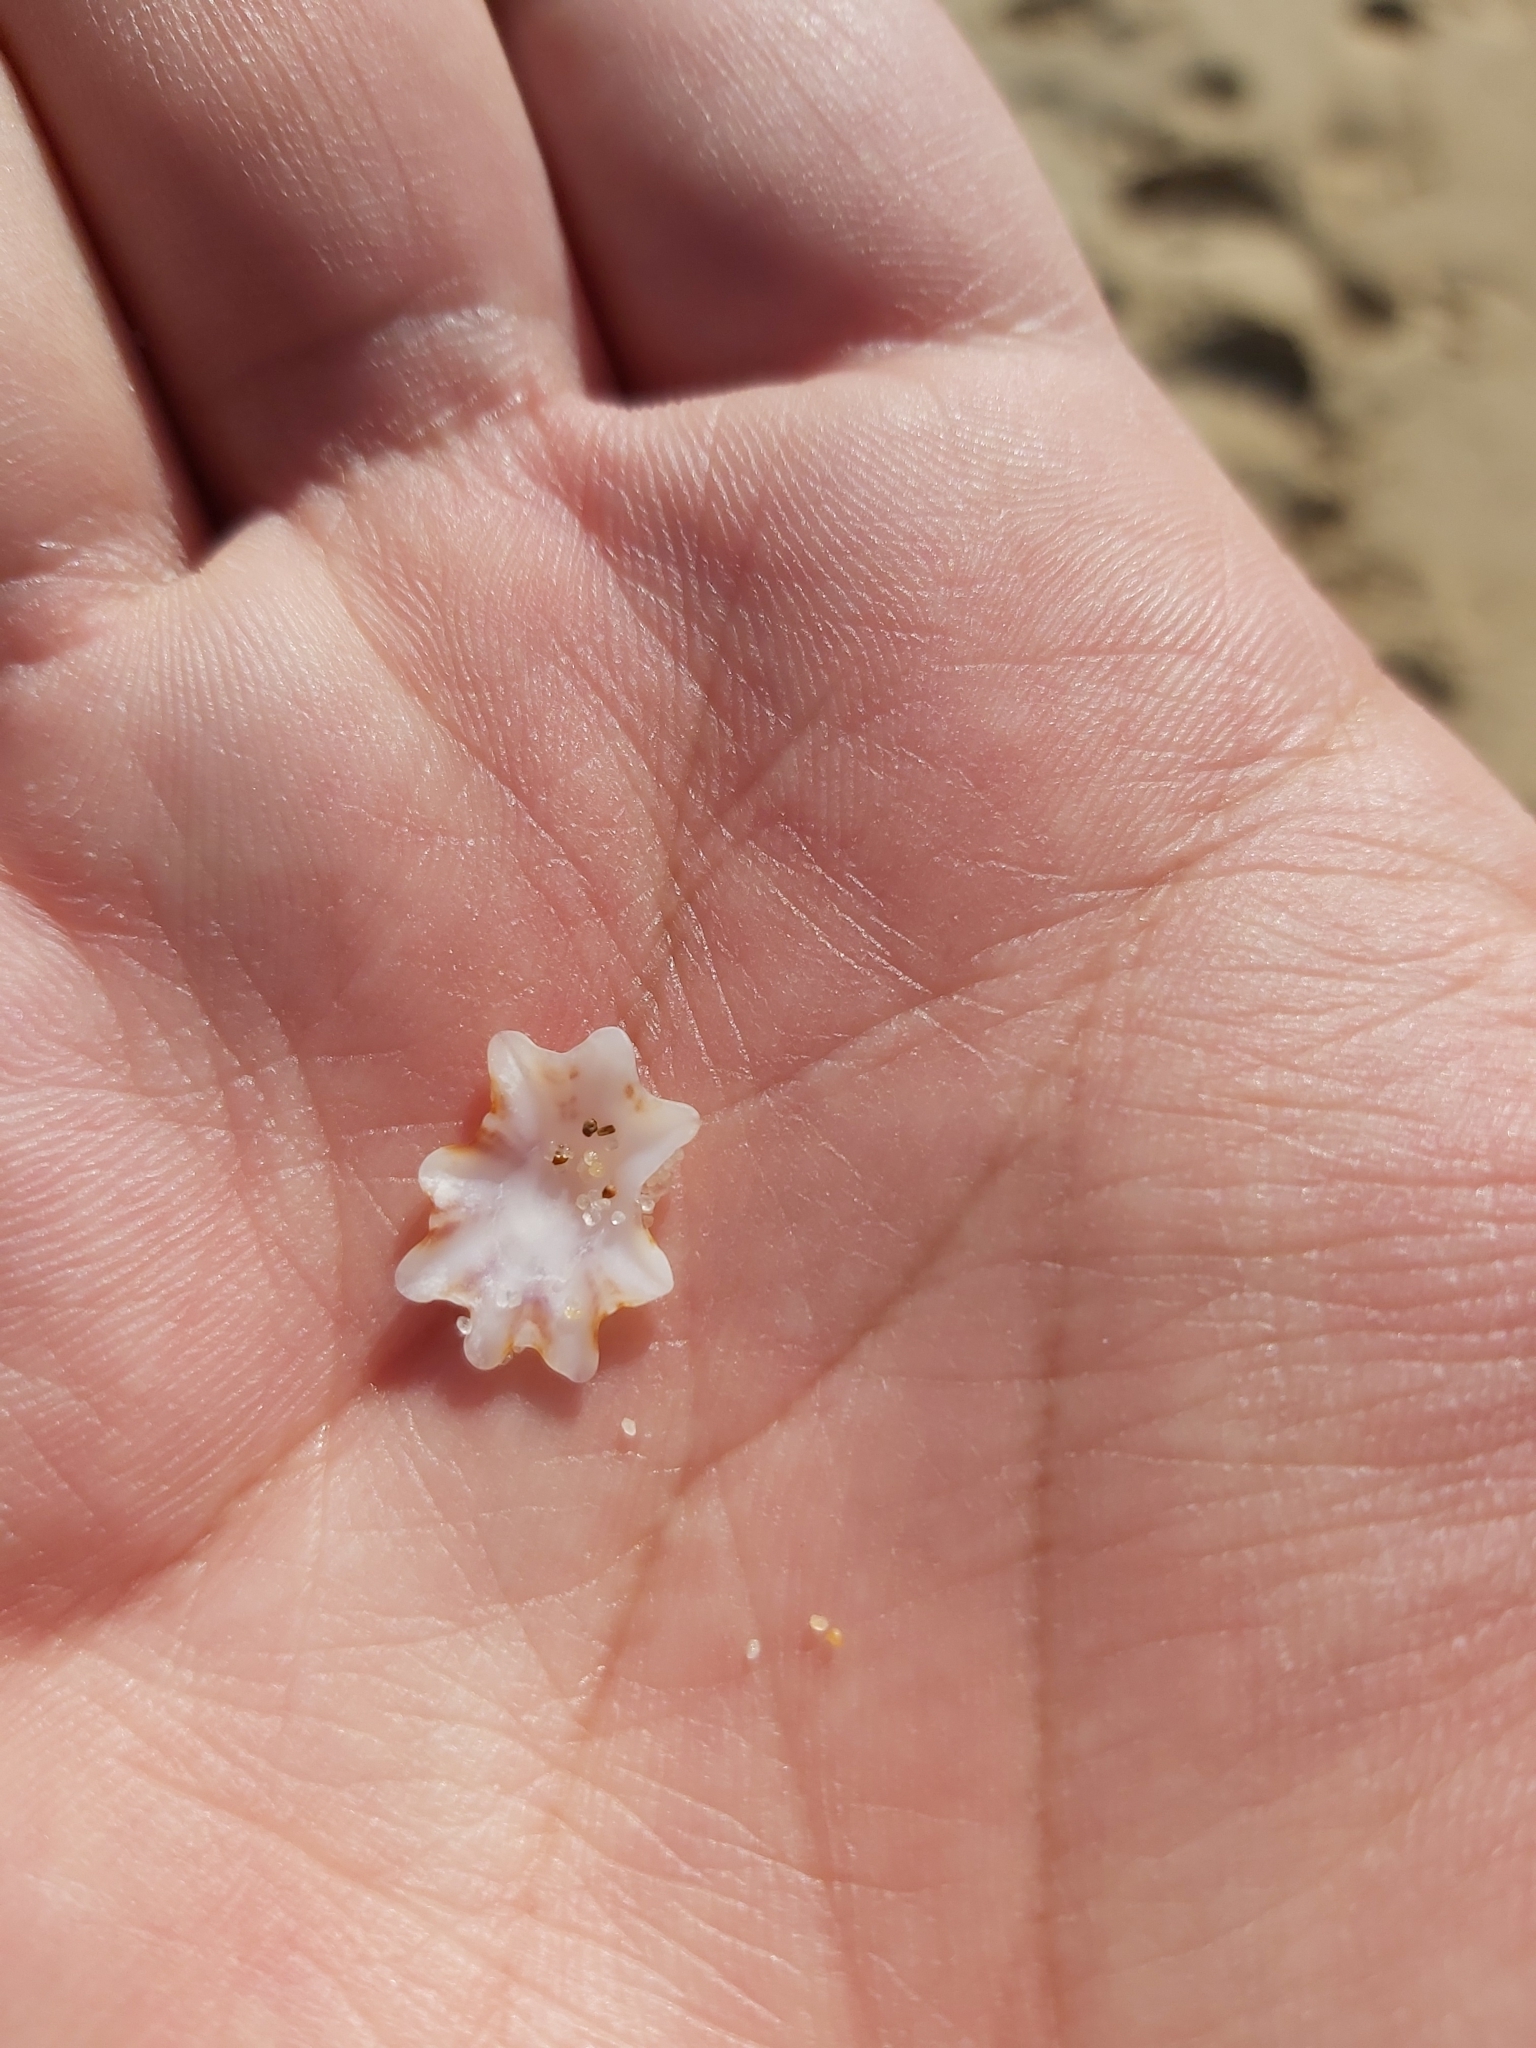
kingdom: Animalia
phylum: Mollusca
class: Gastropoda
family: Patellidae
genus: Scutellastra
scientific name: Scutellastra chapmani
